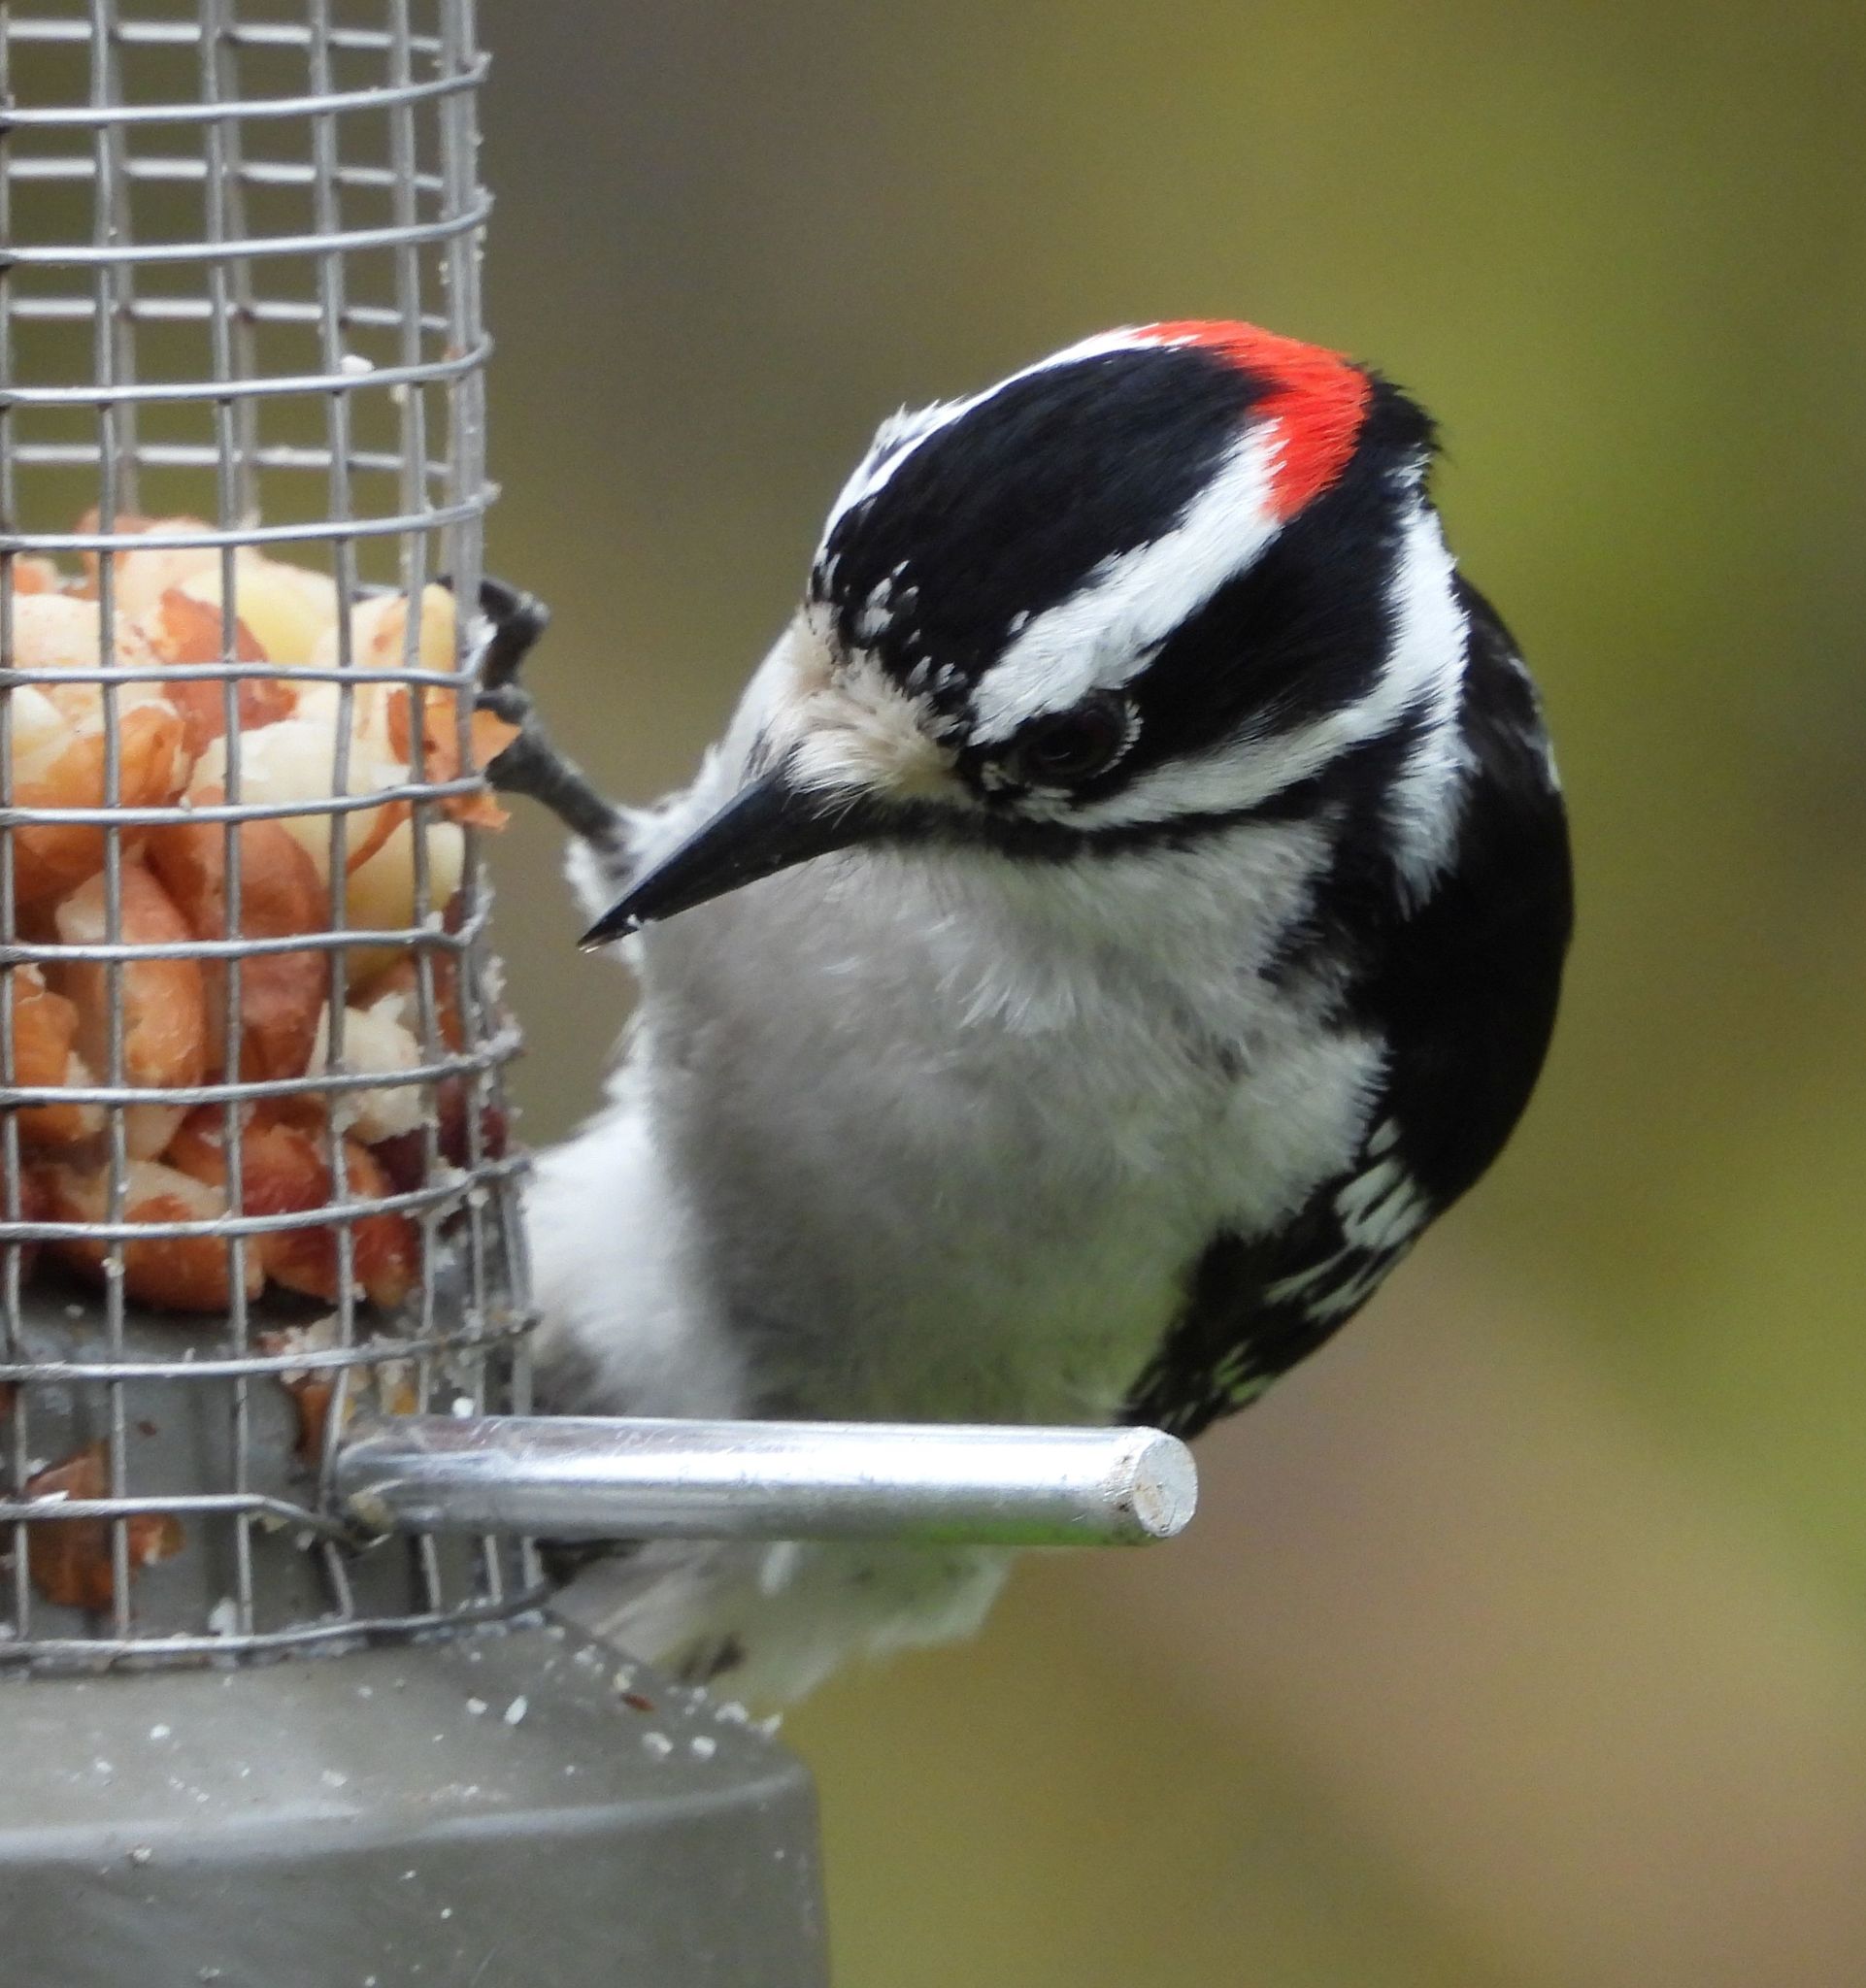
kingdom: Animalia
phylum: Chordata
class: Aves
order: Piciformes
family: Picidae
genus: Dryobates
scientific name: Dryobates pubescens
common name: Downy woodpecker
